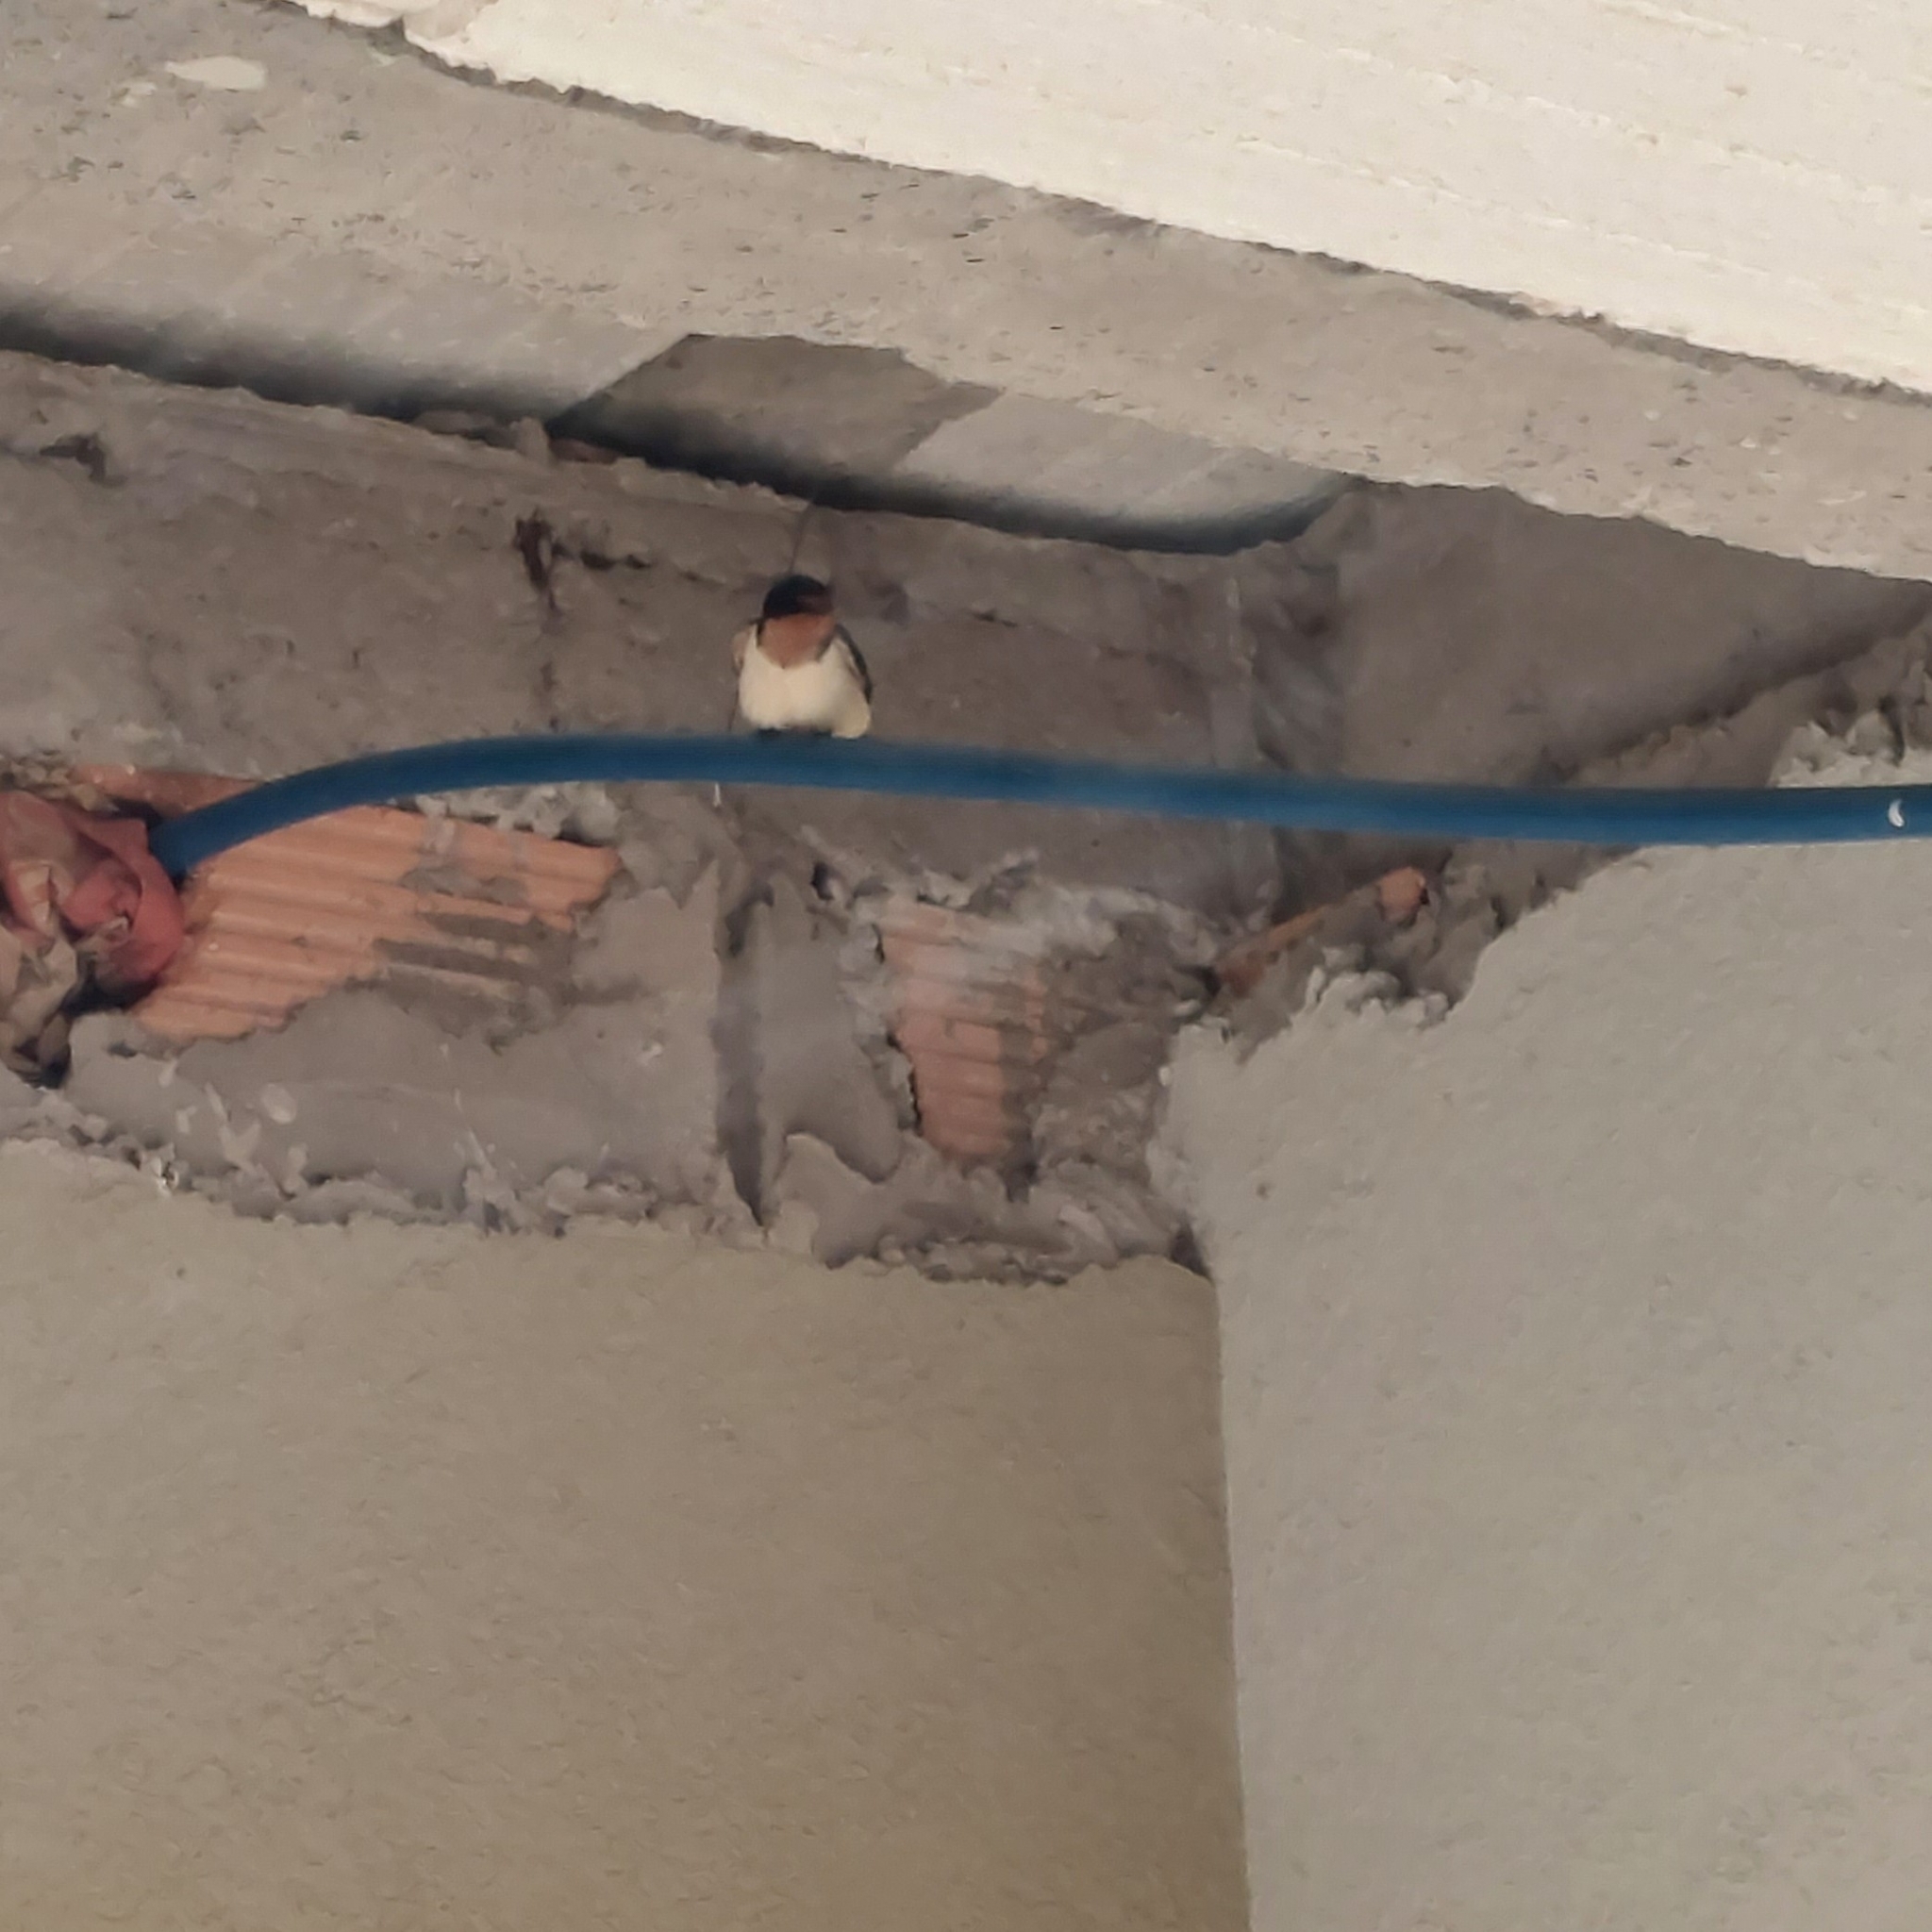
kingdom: Animalia
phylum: Chordata
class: Aves
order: Passeriformes
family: Hirundinidae
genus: Hirundo
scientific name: Hirundo rustica
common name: Barn swallow
